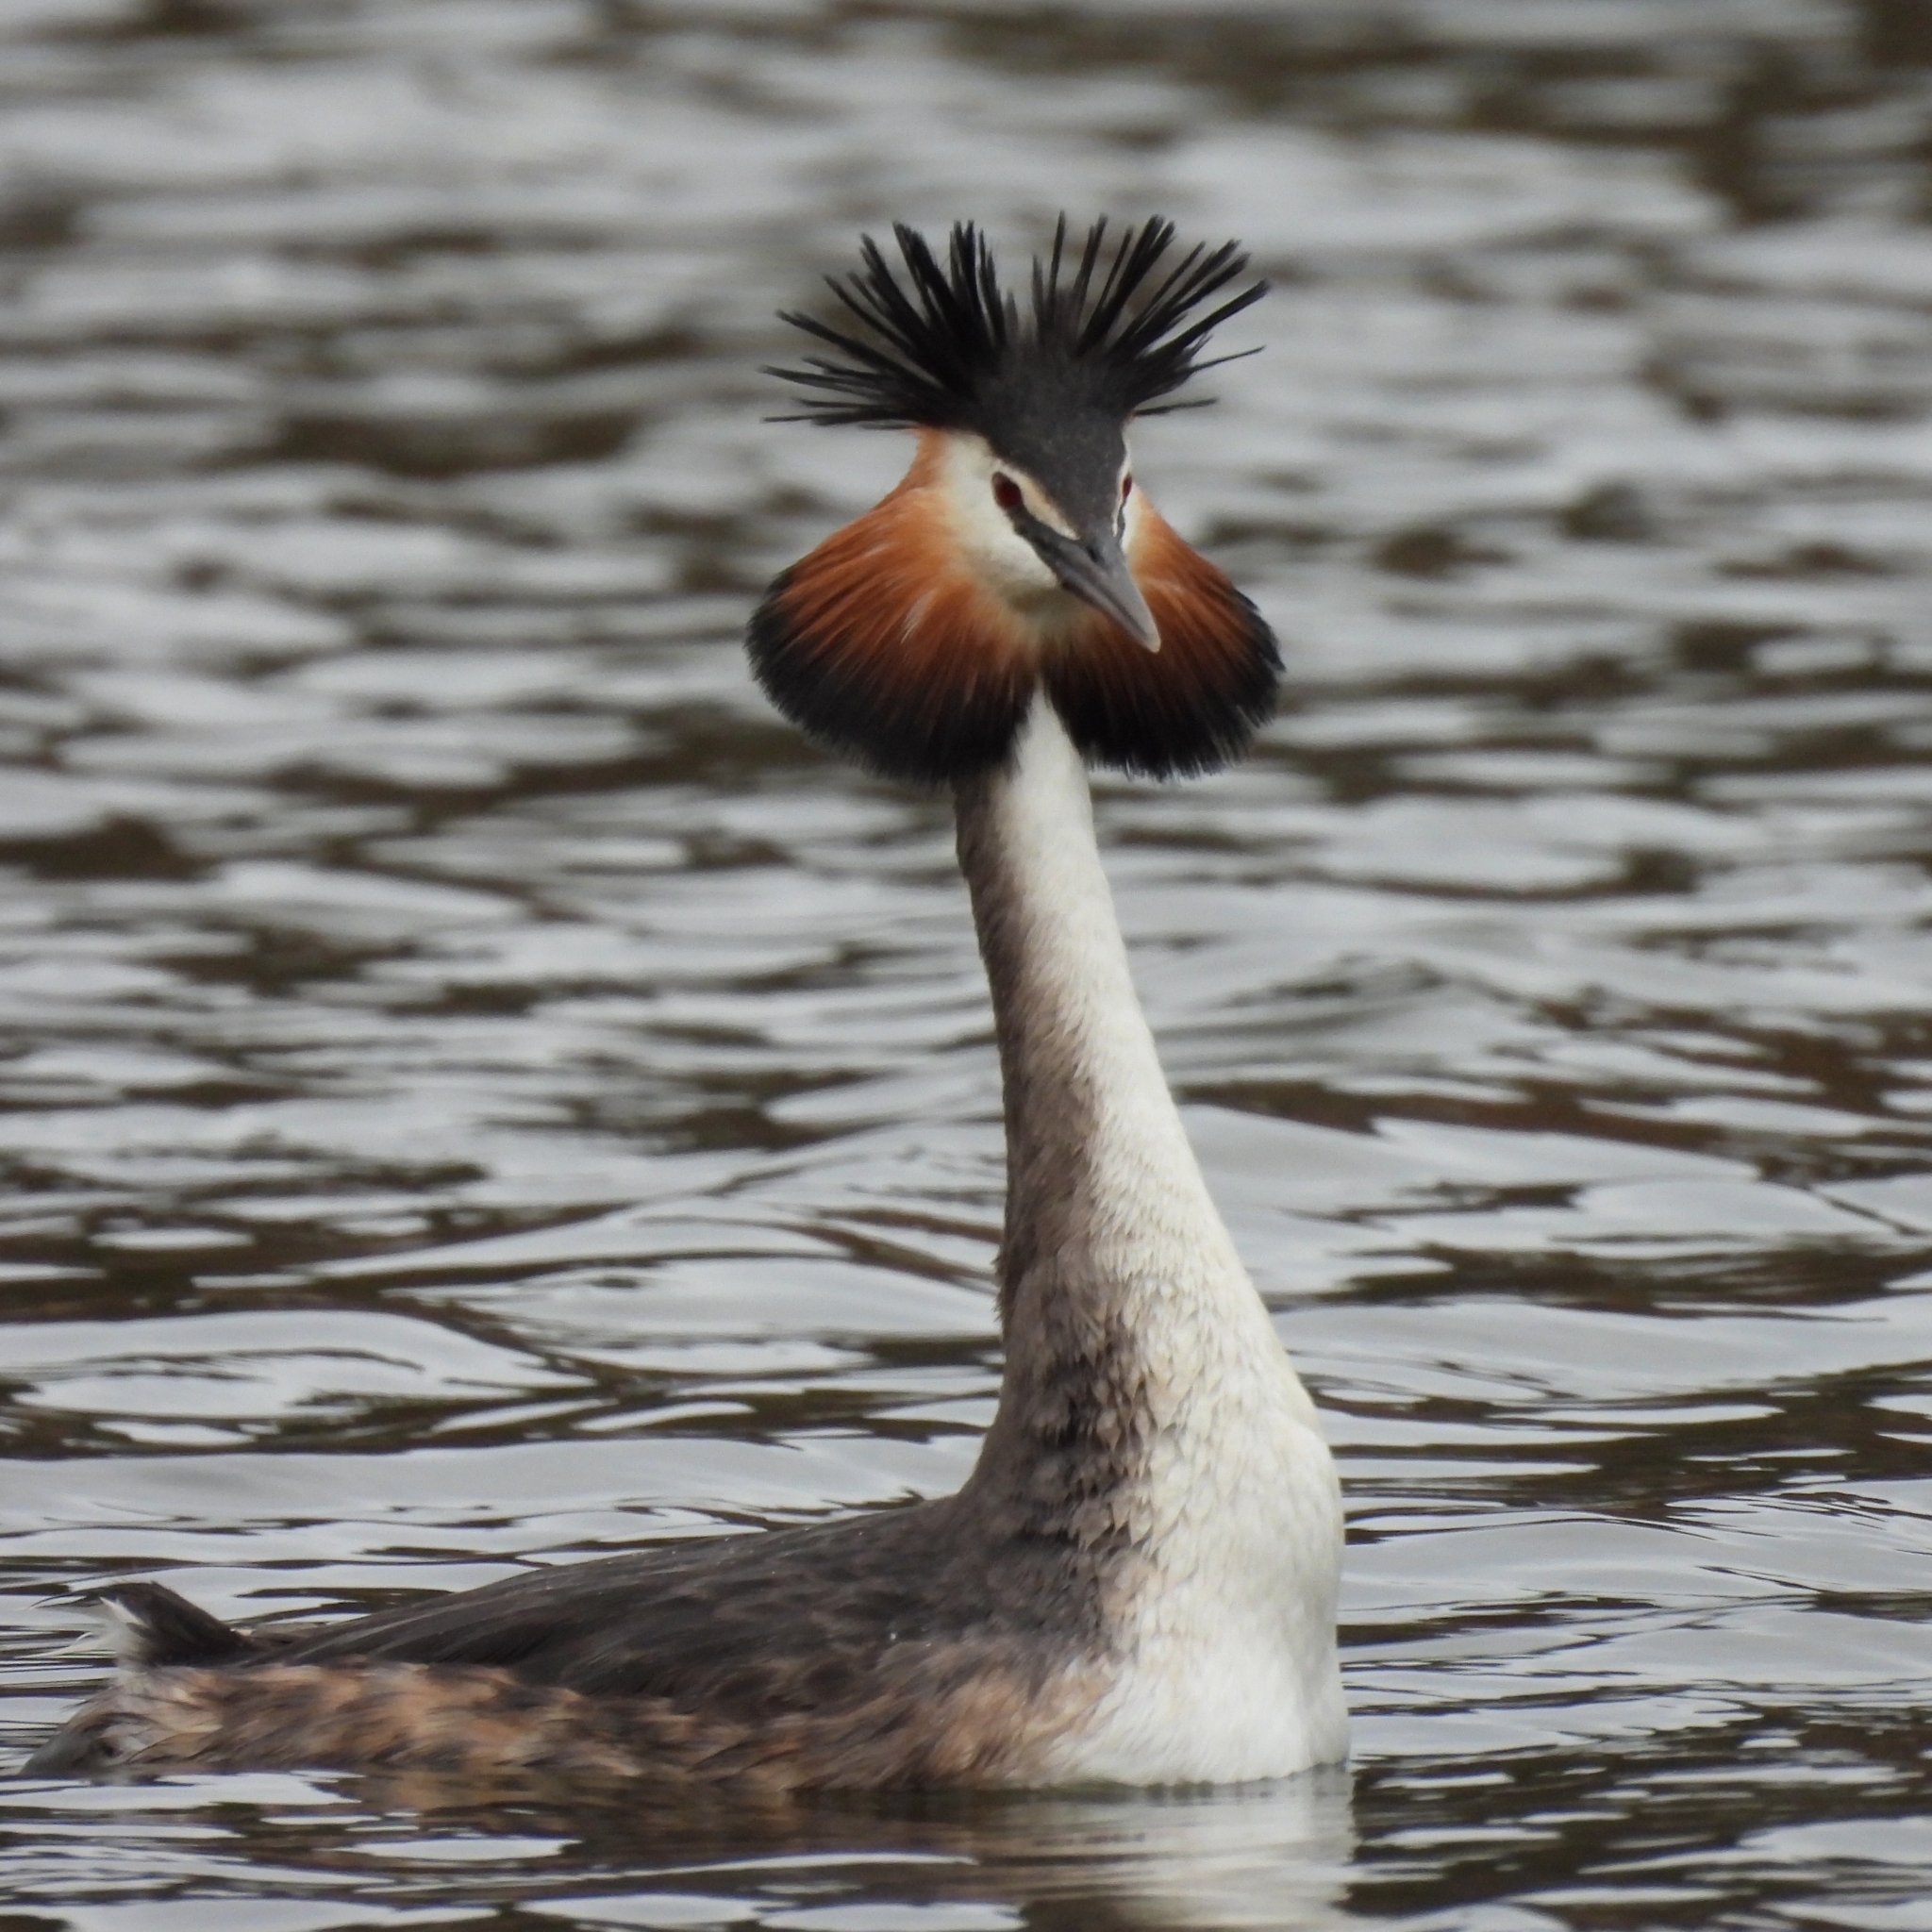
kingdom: Animalia
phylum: Chordata
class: Aves
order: Podicipediformes
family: Podicipedidae
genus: Podiceps
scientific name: Podiceps cristatus
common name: Great crested grebe
